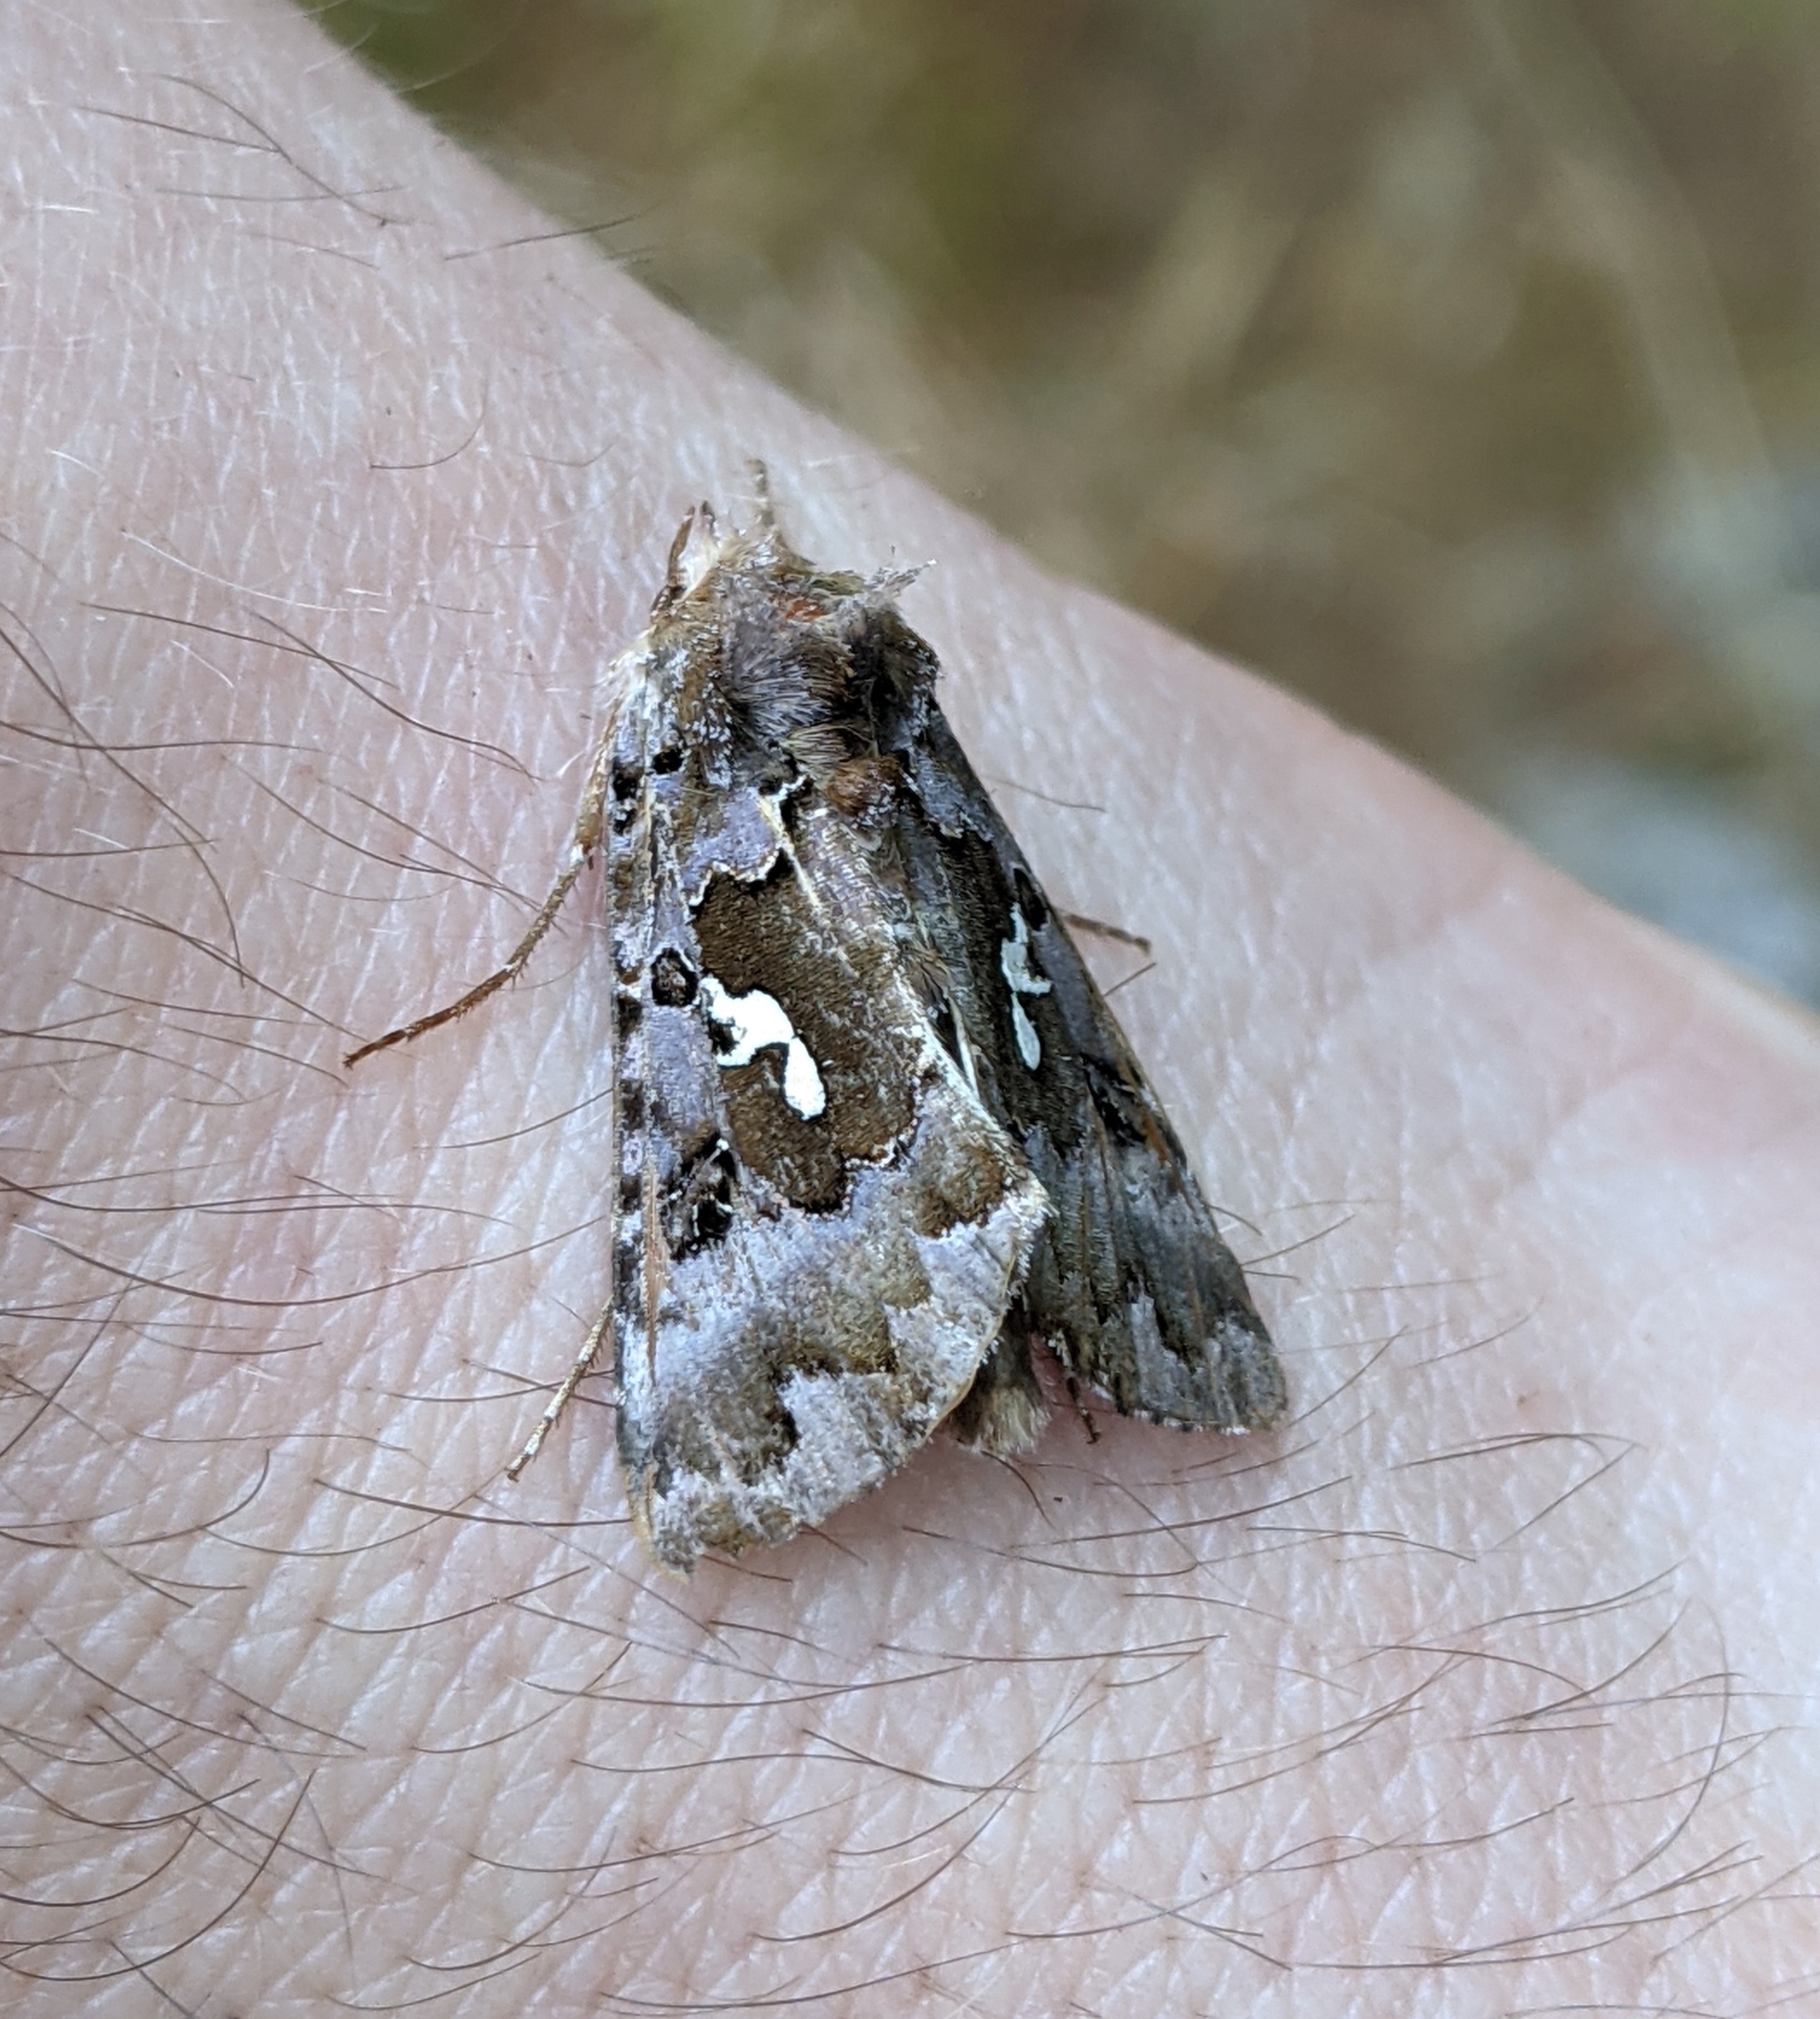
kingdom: Animalia
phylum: Arthropoda
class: Insecta
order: Lepidoptera
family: Noctuidae
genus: Autographa
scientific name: Autographa corusca
